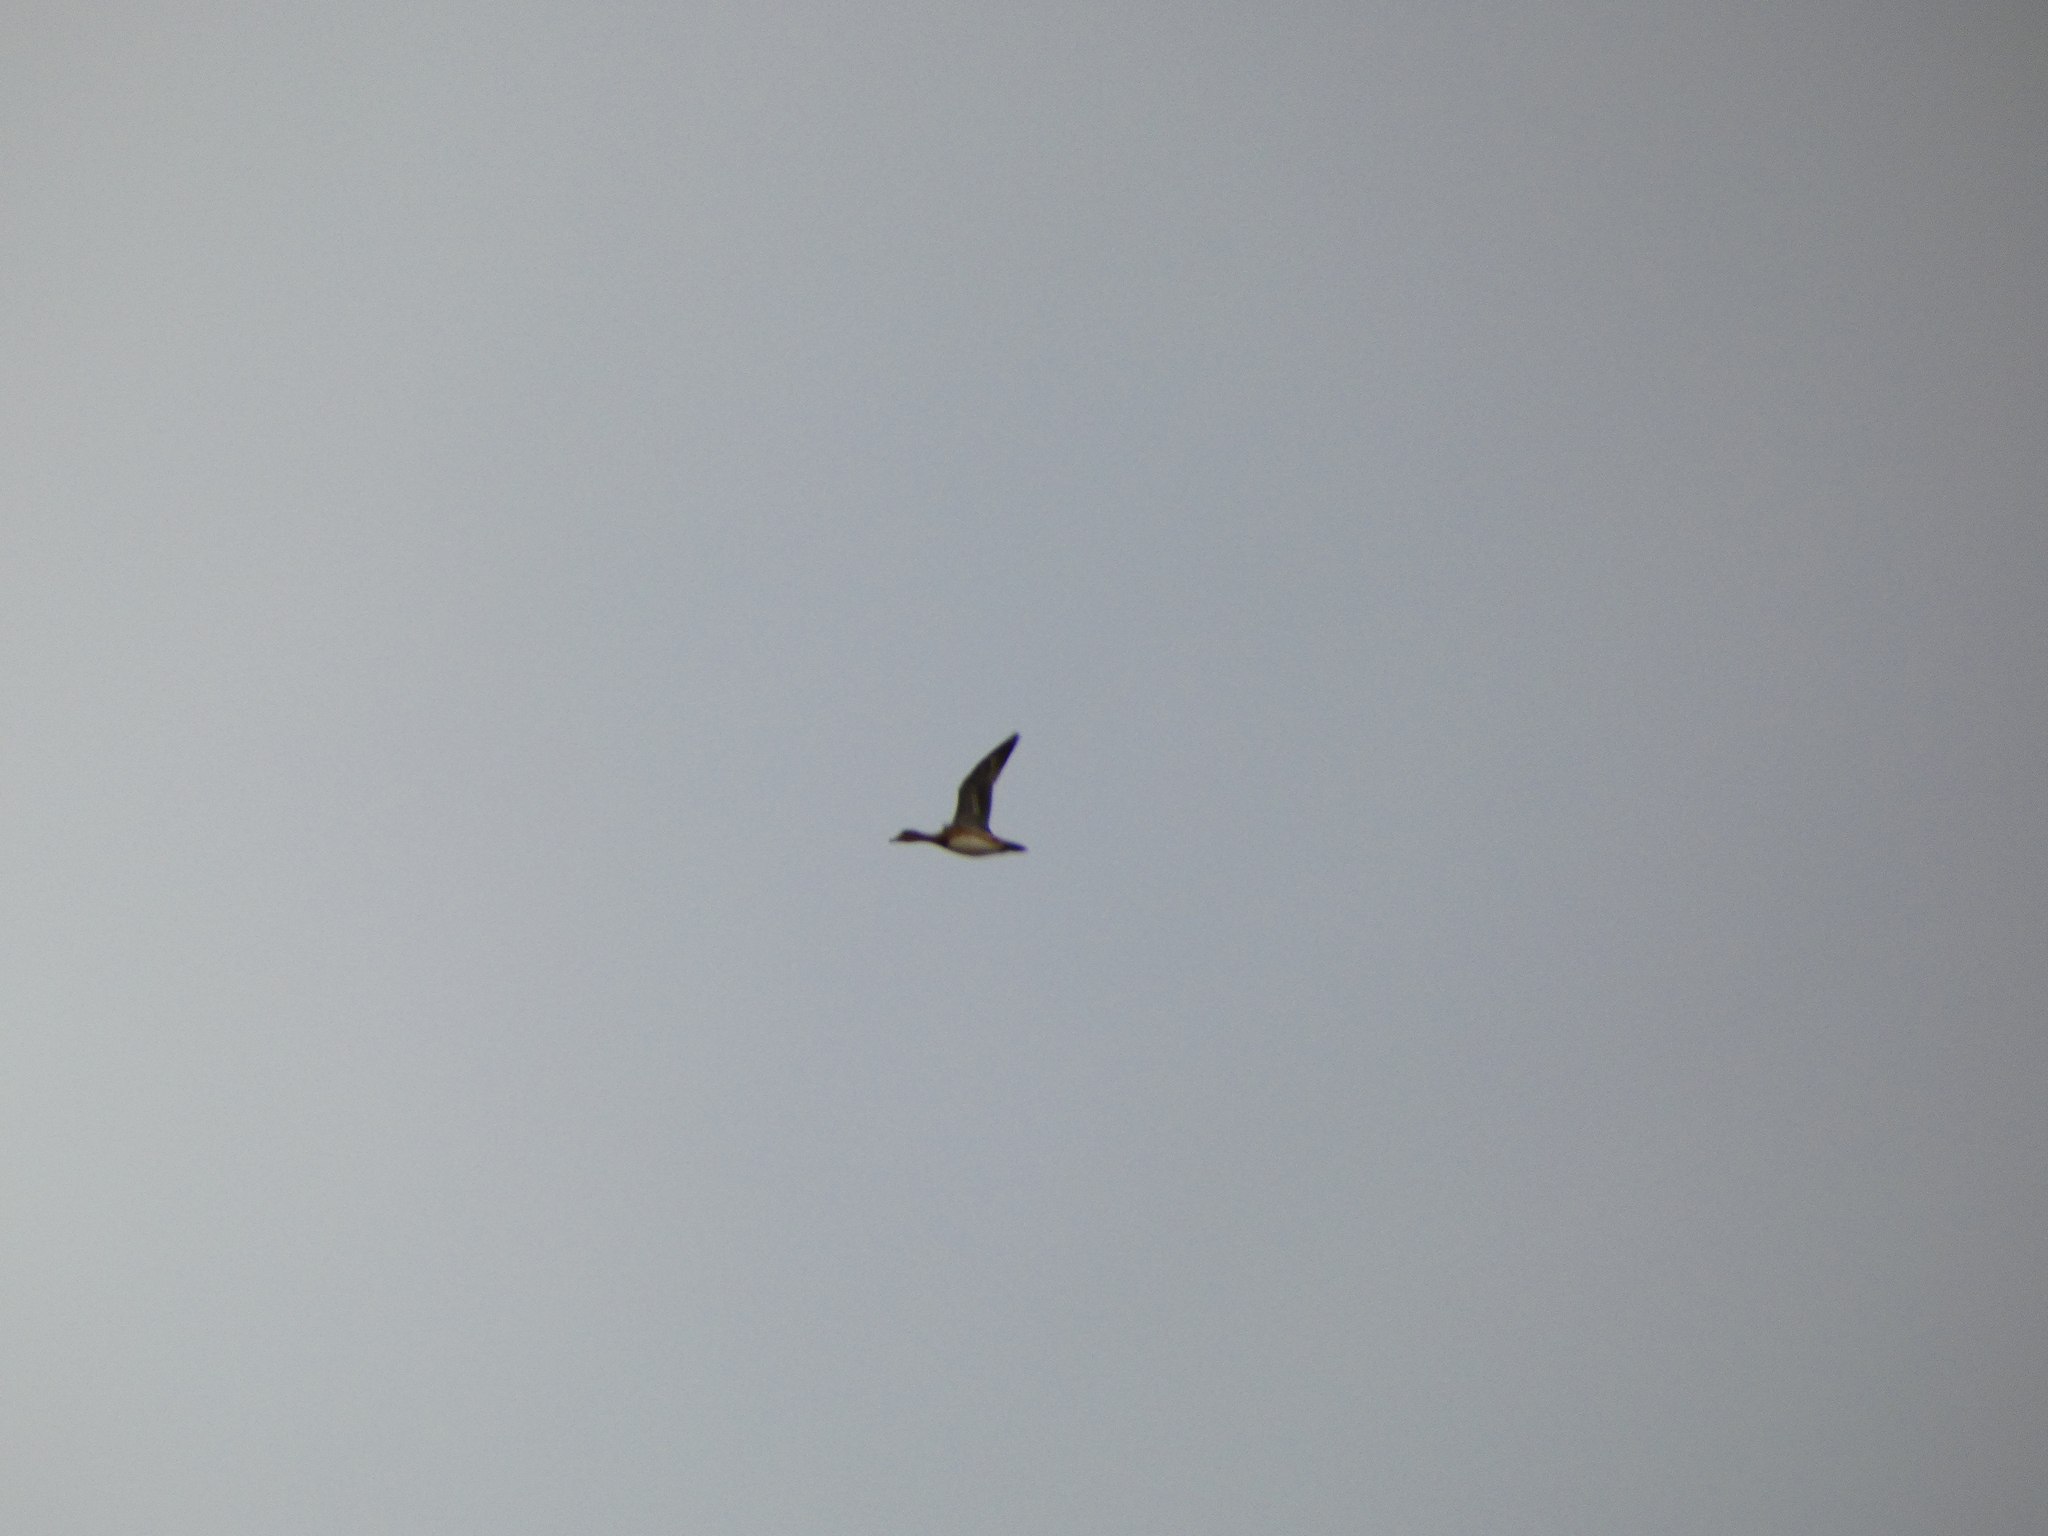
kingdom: Animalia
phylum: Chordata
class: Aves
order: Anseriformes
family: Anatidae
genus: Mareca
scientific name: Mareca penelope
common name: Eurasian wigeon
